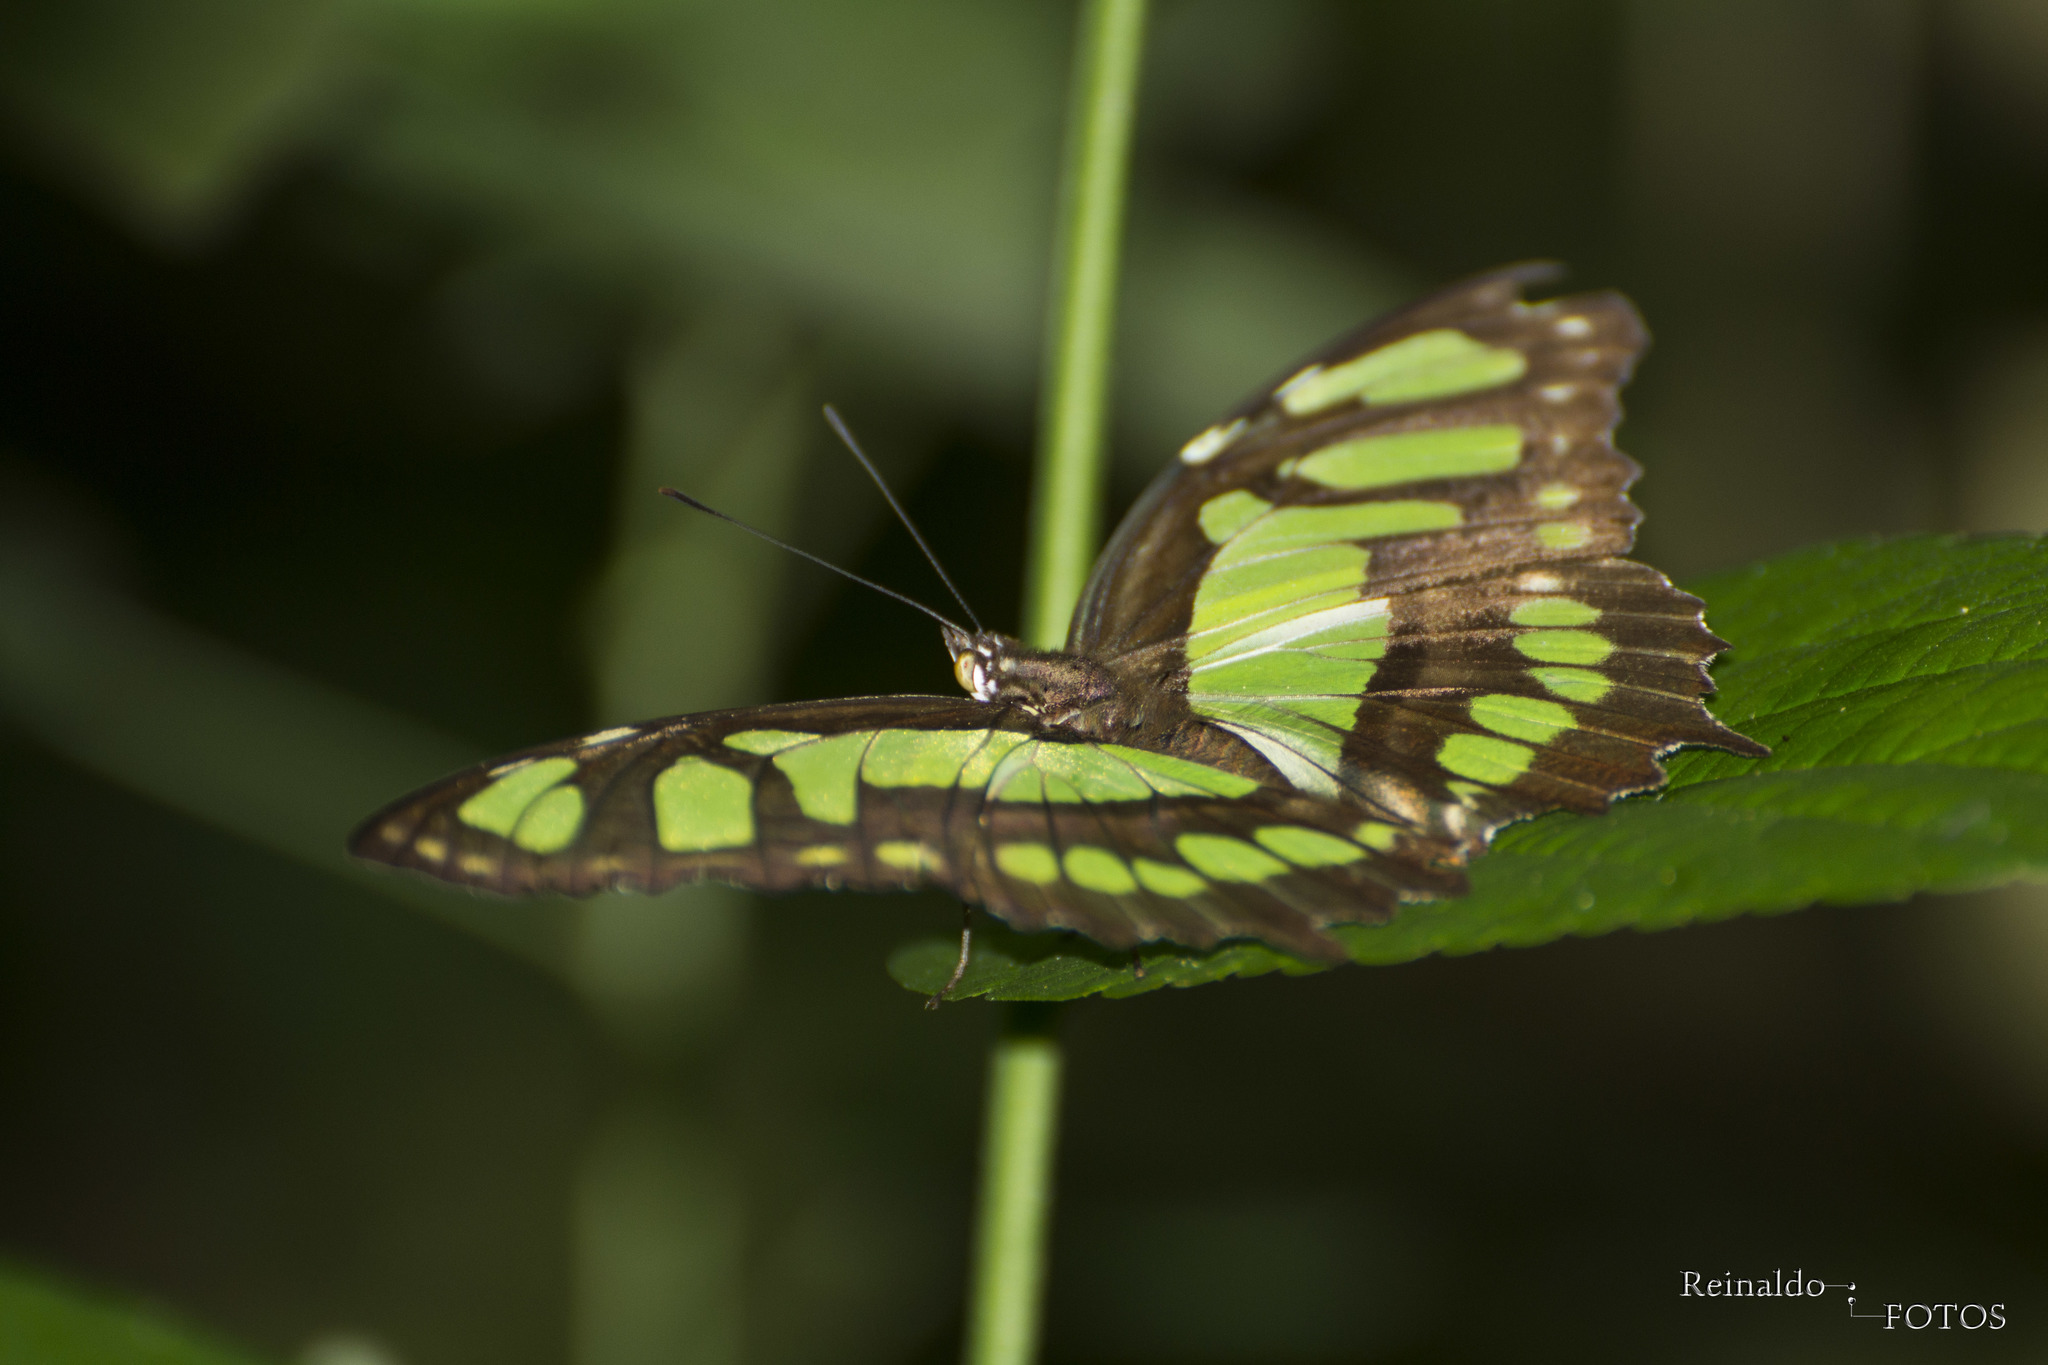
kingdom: Animalia
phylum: Arthropoda
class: Insecta
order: Lepidoptera
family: Nymphalidae
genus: Siproeta
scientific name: Siproeta stelenes
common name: Malachite
